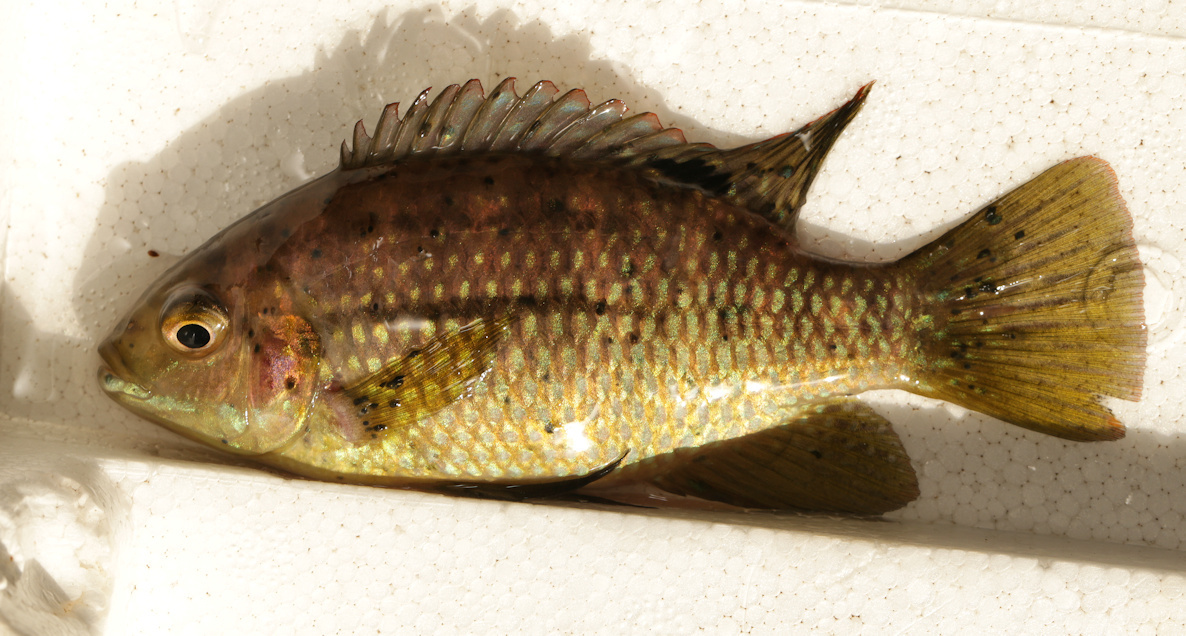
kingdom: Animalia
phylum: Chordata
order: Perciformes
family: Cichlidae
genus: Tilapia
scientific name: Tilapia sparrmanii
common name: Banded tilapia
